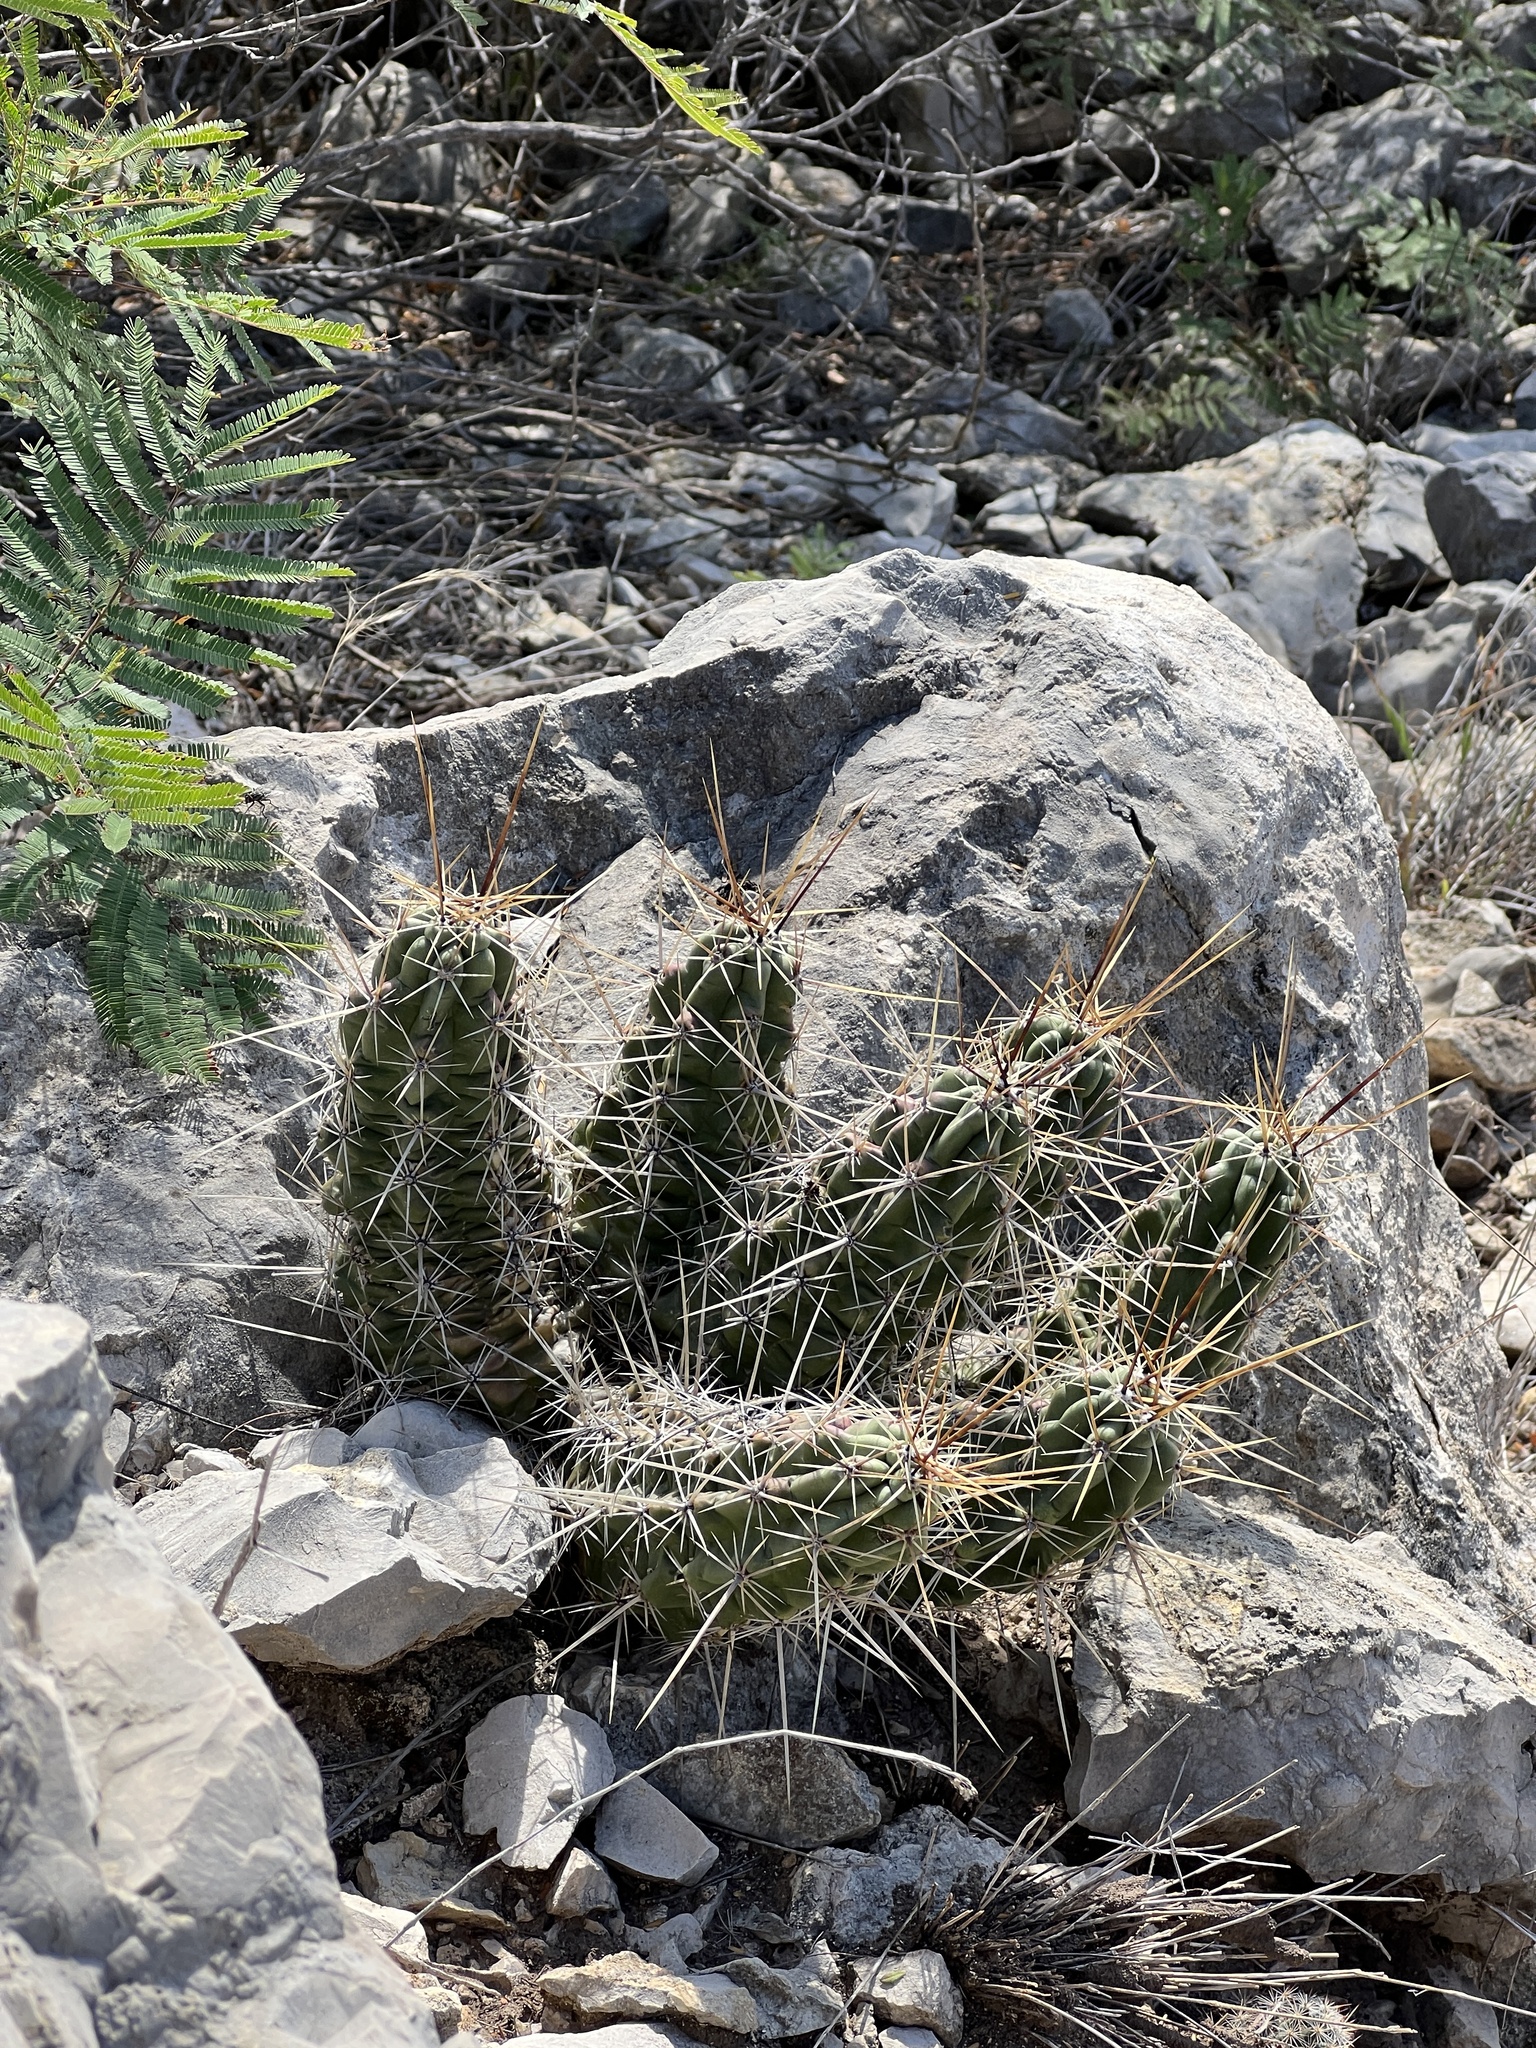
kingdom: Plantae
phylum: Tracheophyta
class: Magnoliopsida
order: Caryophyllales
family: Cactaceae
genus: Echinocereus
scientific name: Echinocereus enneacanthus
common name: Pitaya
